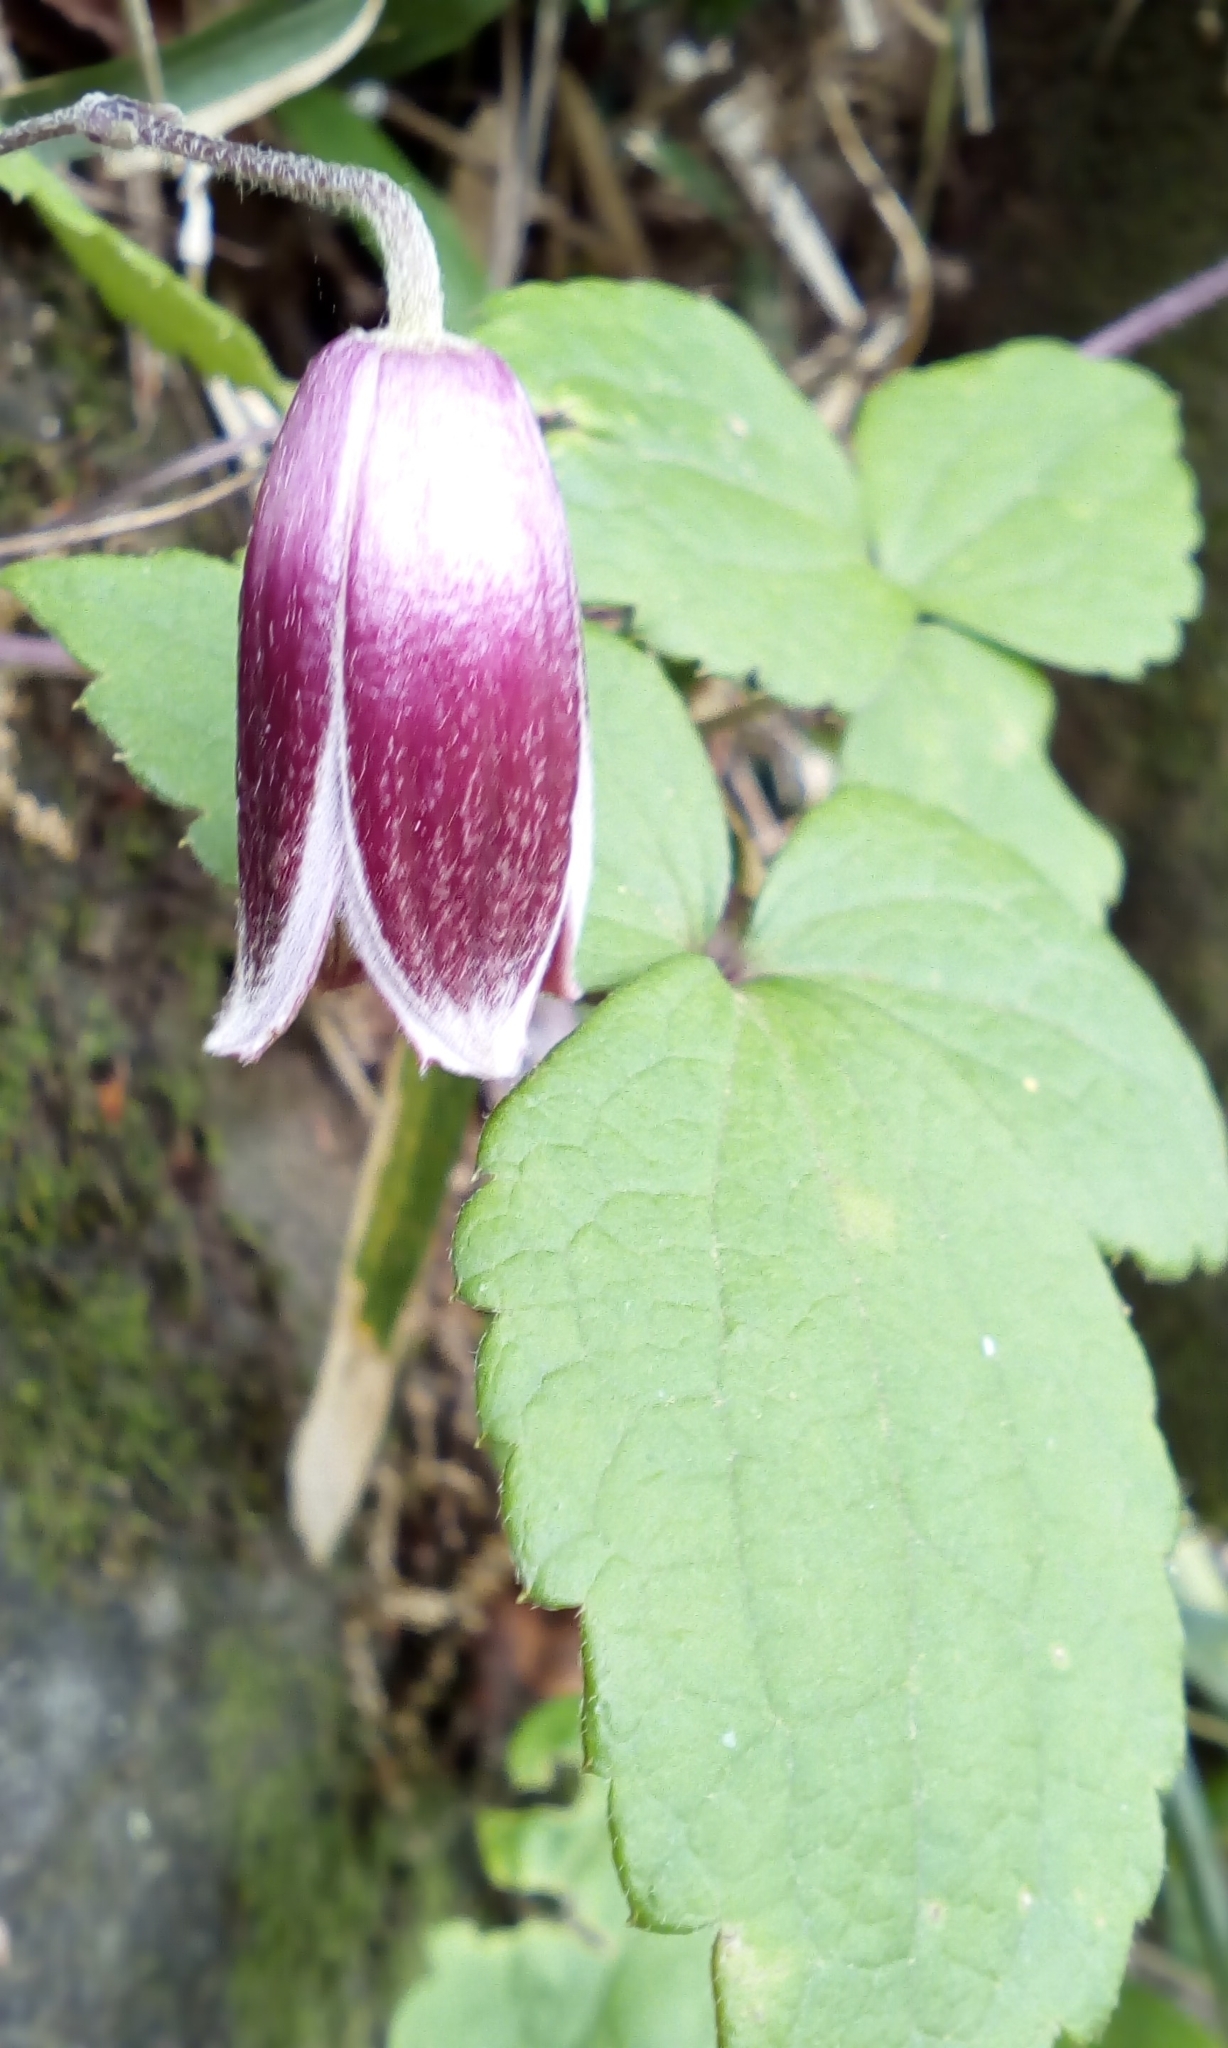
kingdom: Plantae
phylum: Tracheophyta
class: Magnoliopsida
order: Ranunculales
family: Ranunculaceae
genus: Clematis
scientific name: Clematis japonica
